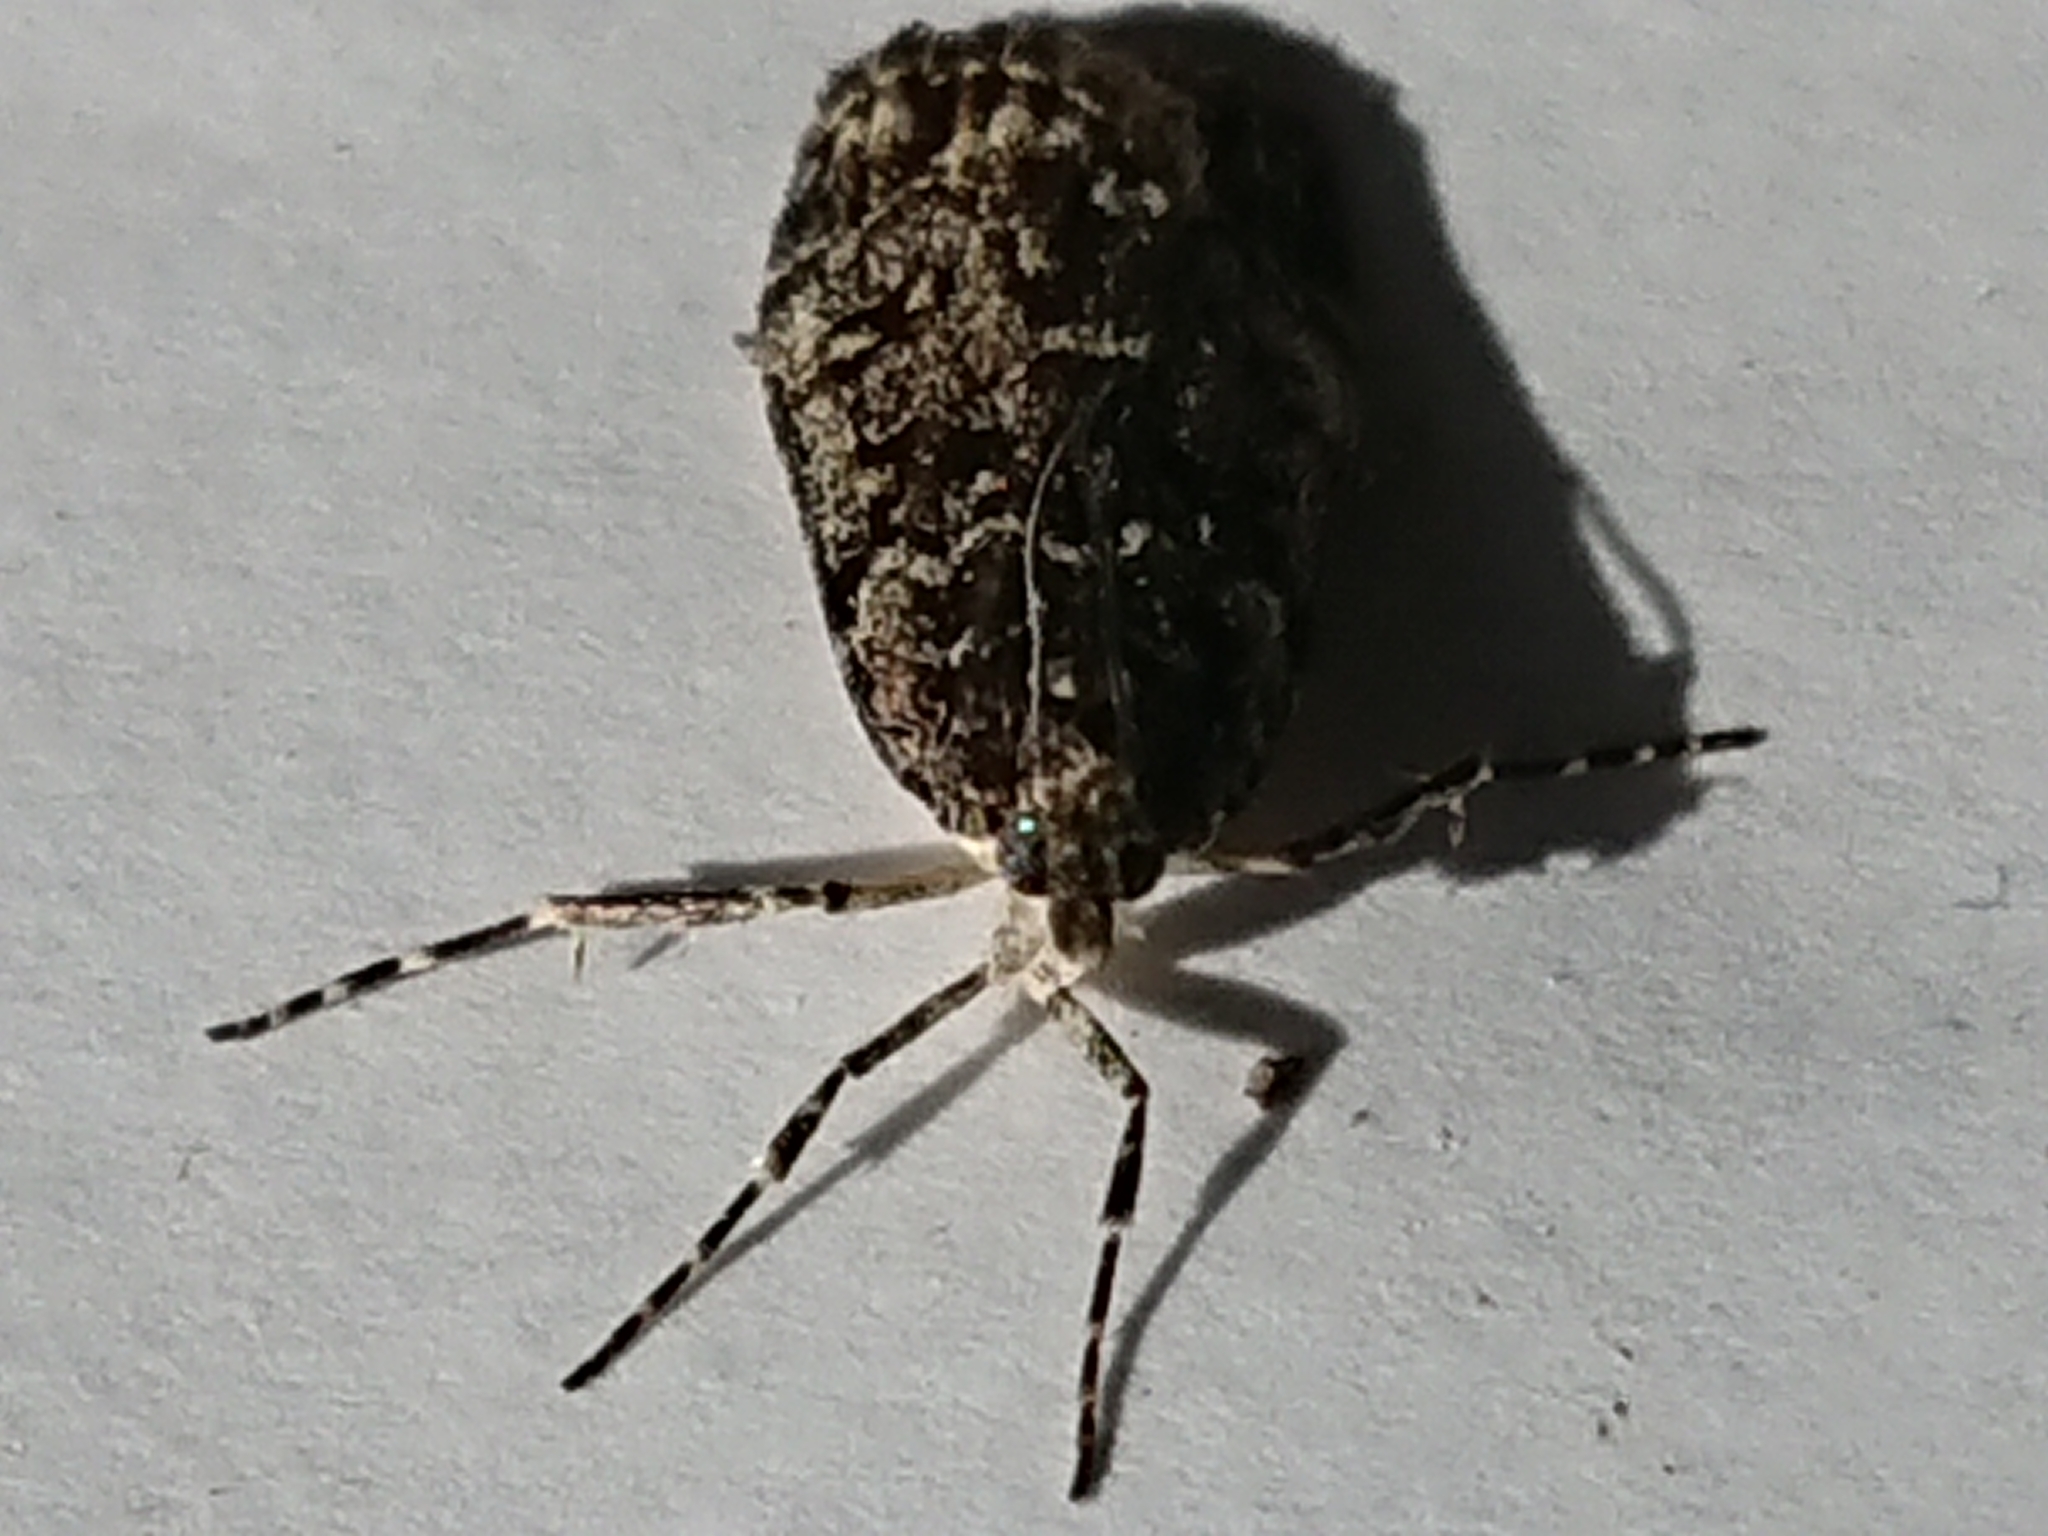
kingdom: Animalia
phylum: Arthropoda
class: Insecta
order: Lepidoptera
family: Crambidae
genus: Eudonia
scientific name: Eudonia philerga
